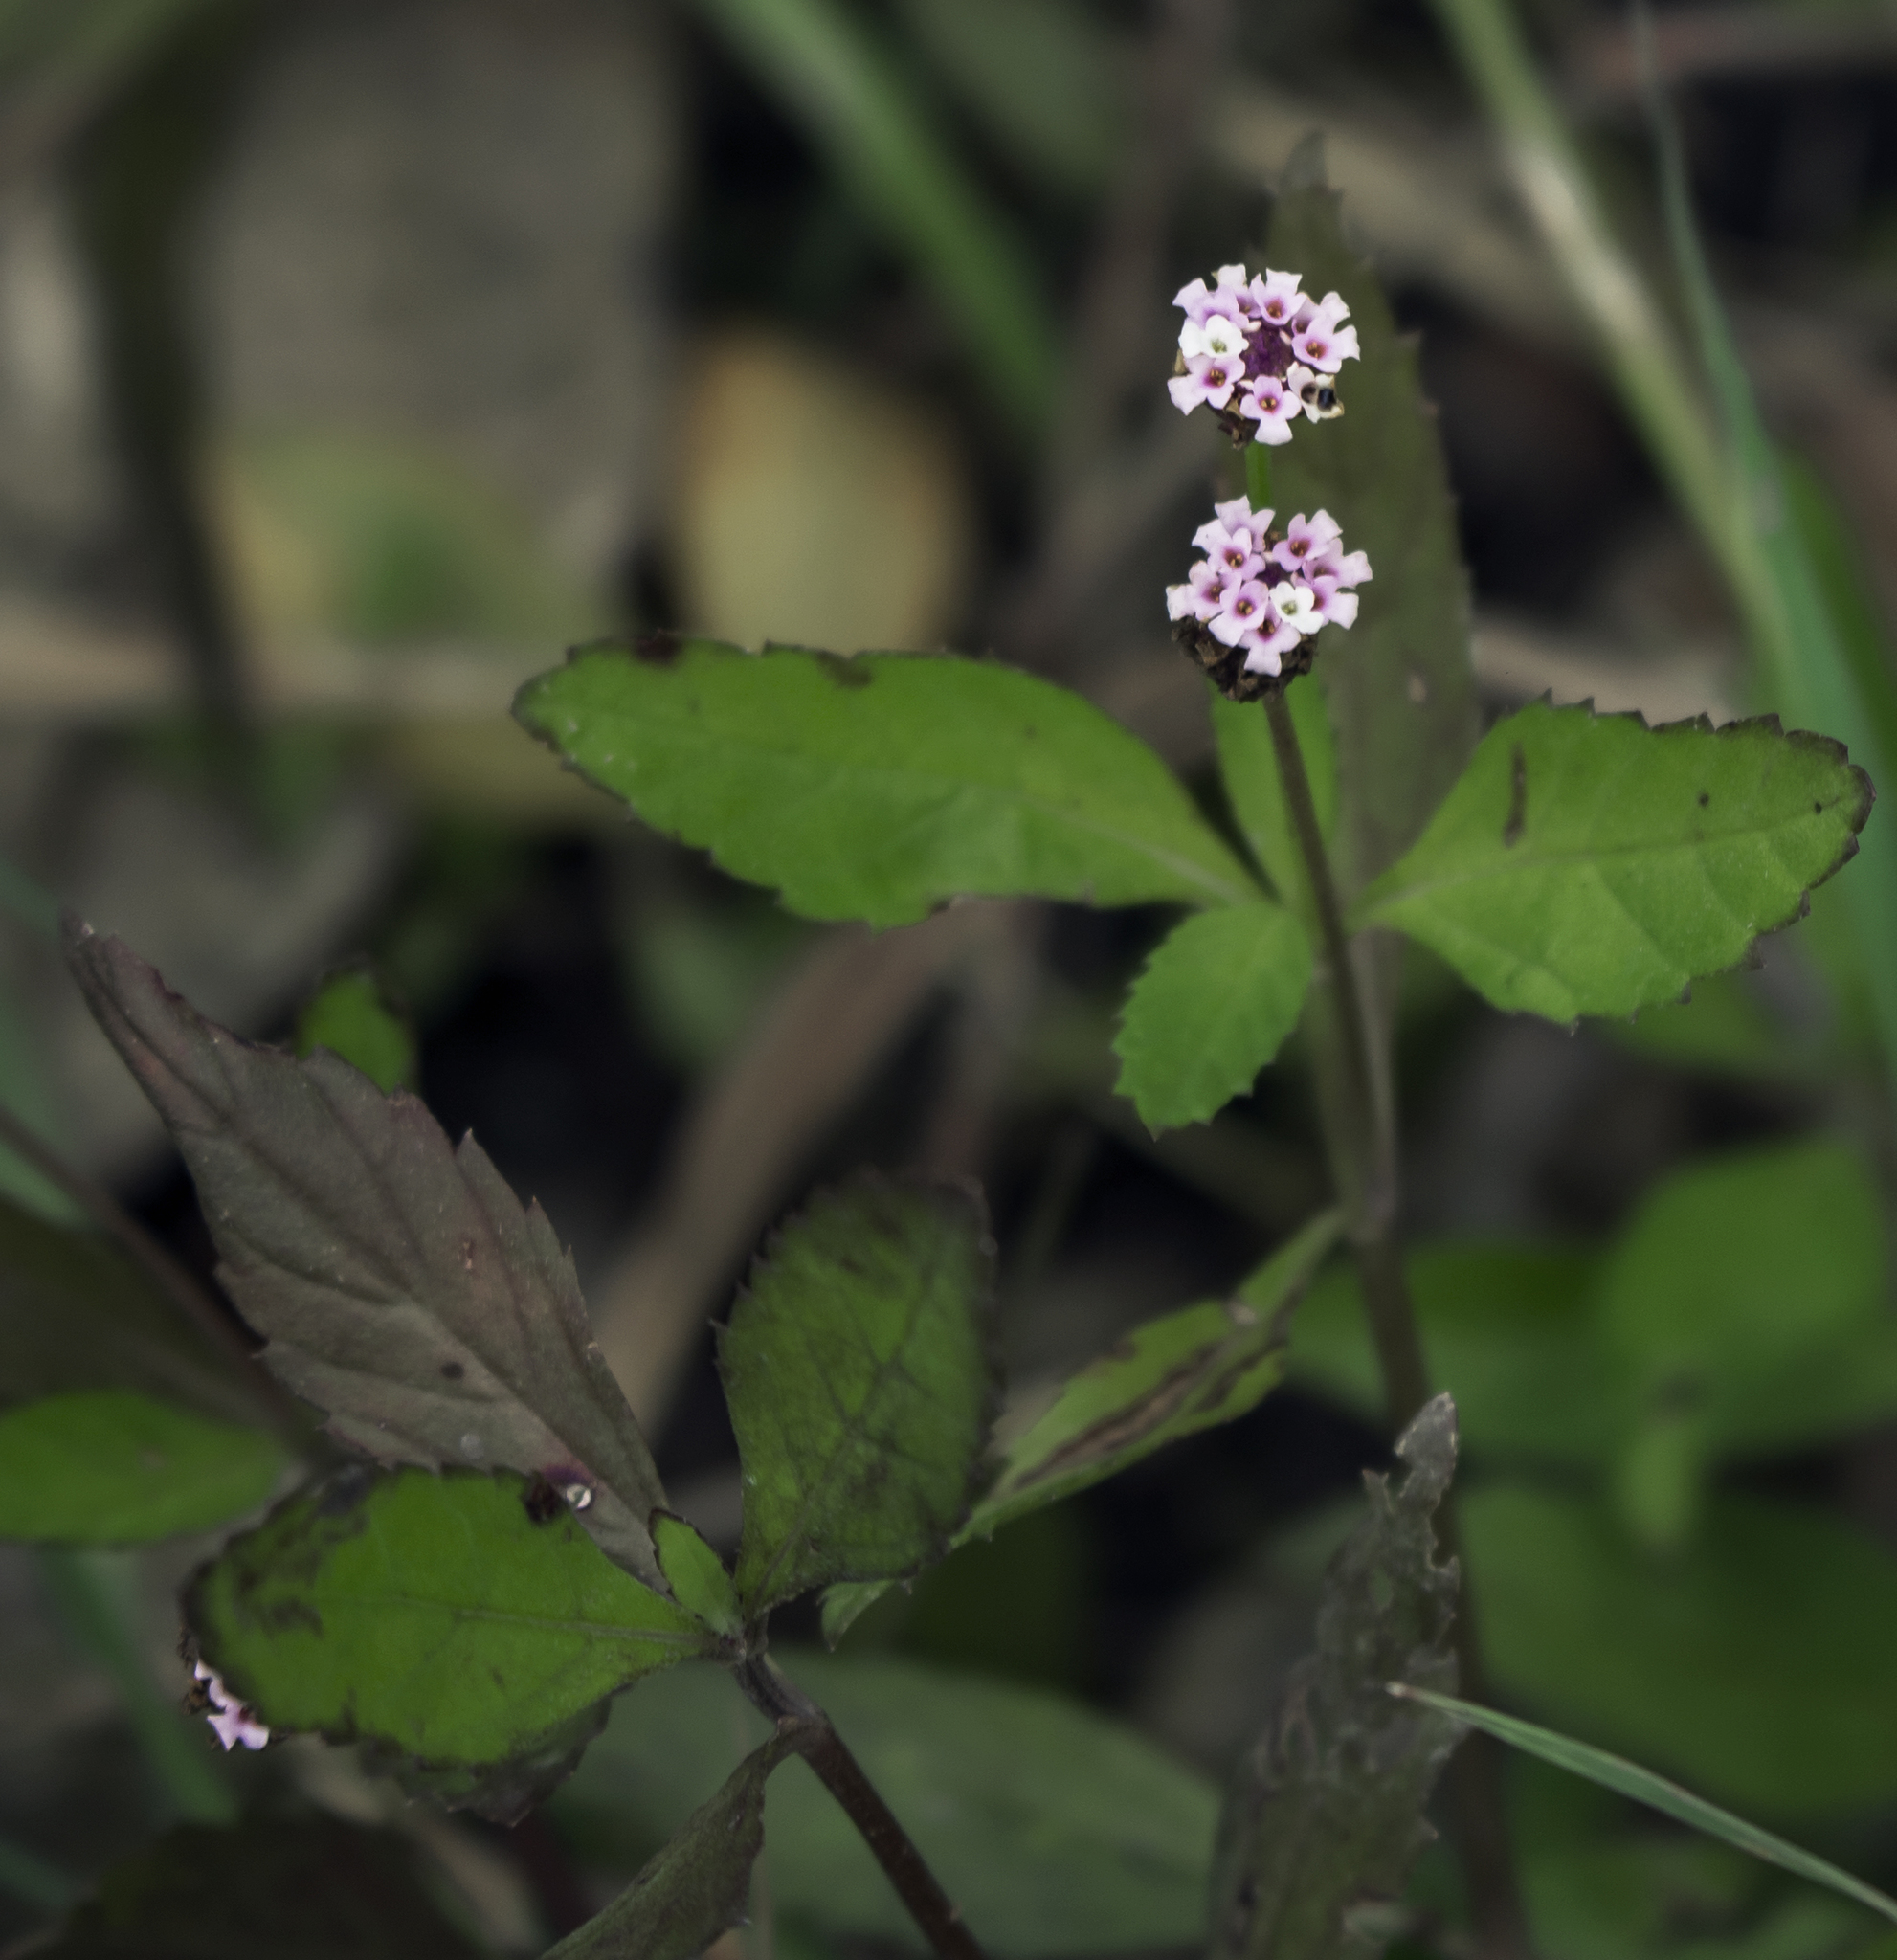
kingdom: Plantae
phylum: Tracheophyta
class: Magnoliopsida
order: Lamiales
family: Verbenaceae
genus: Phyla
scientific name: Phyla lanceolata
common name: Northern fogfruit
